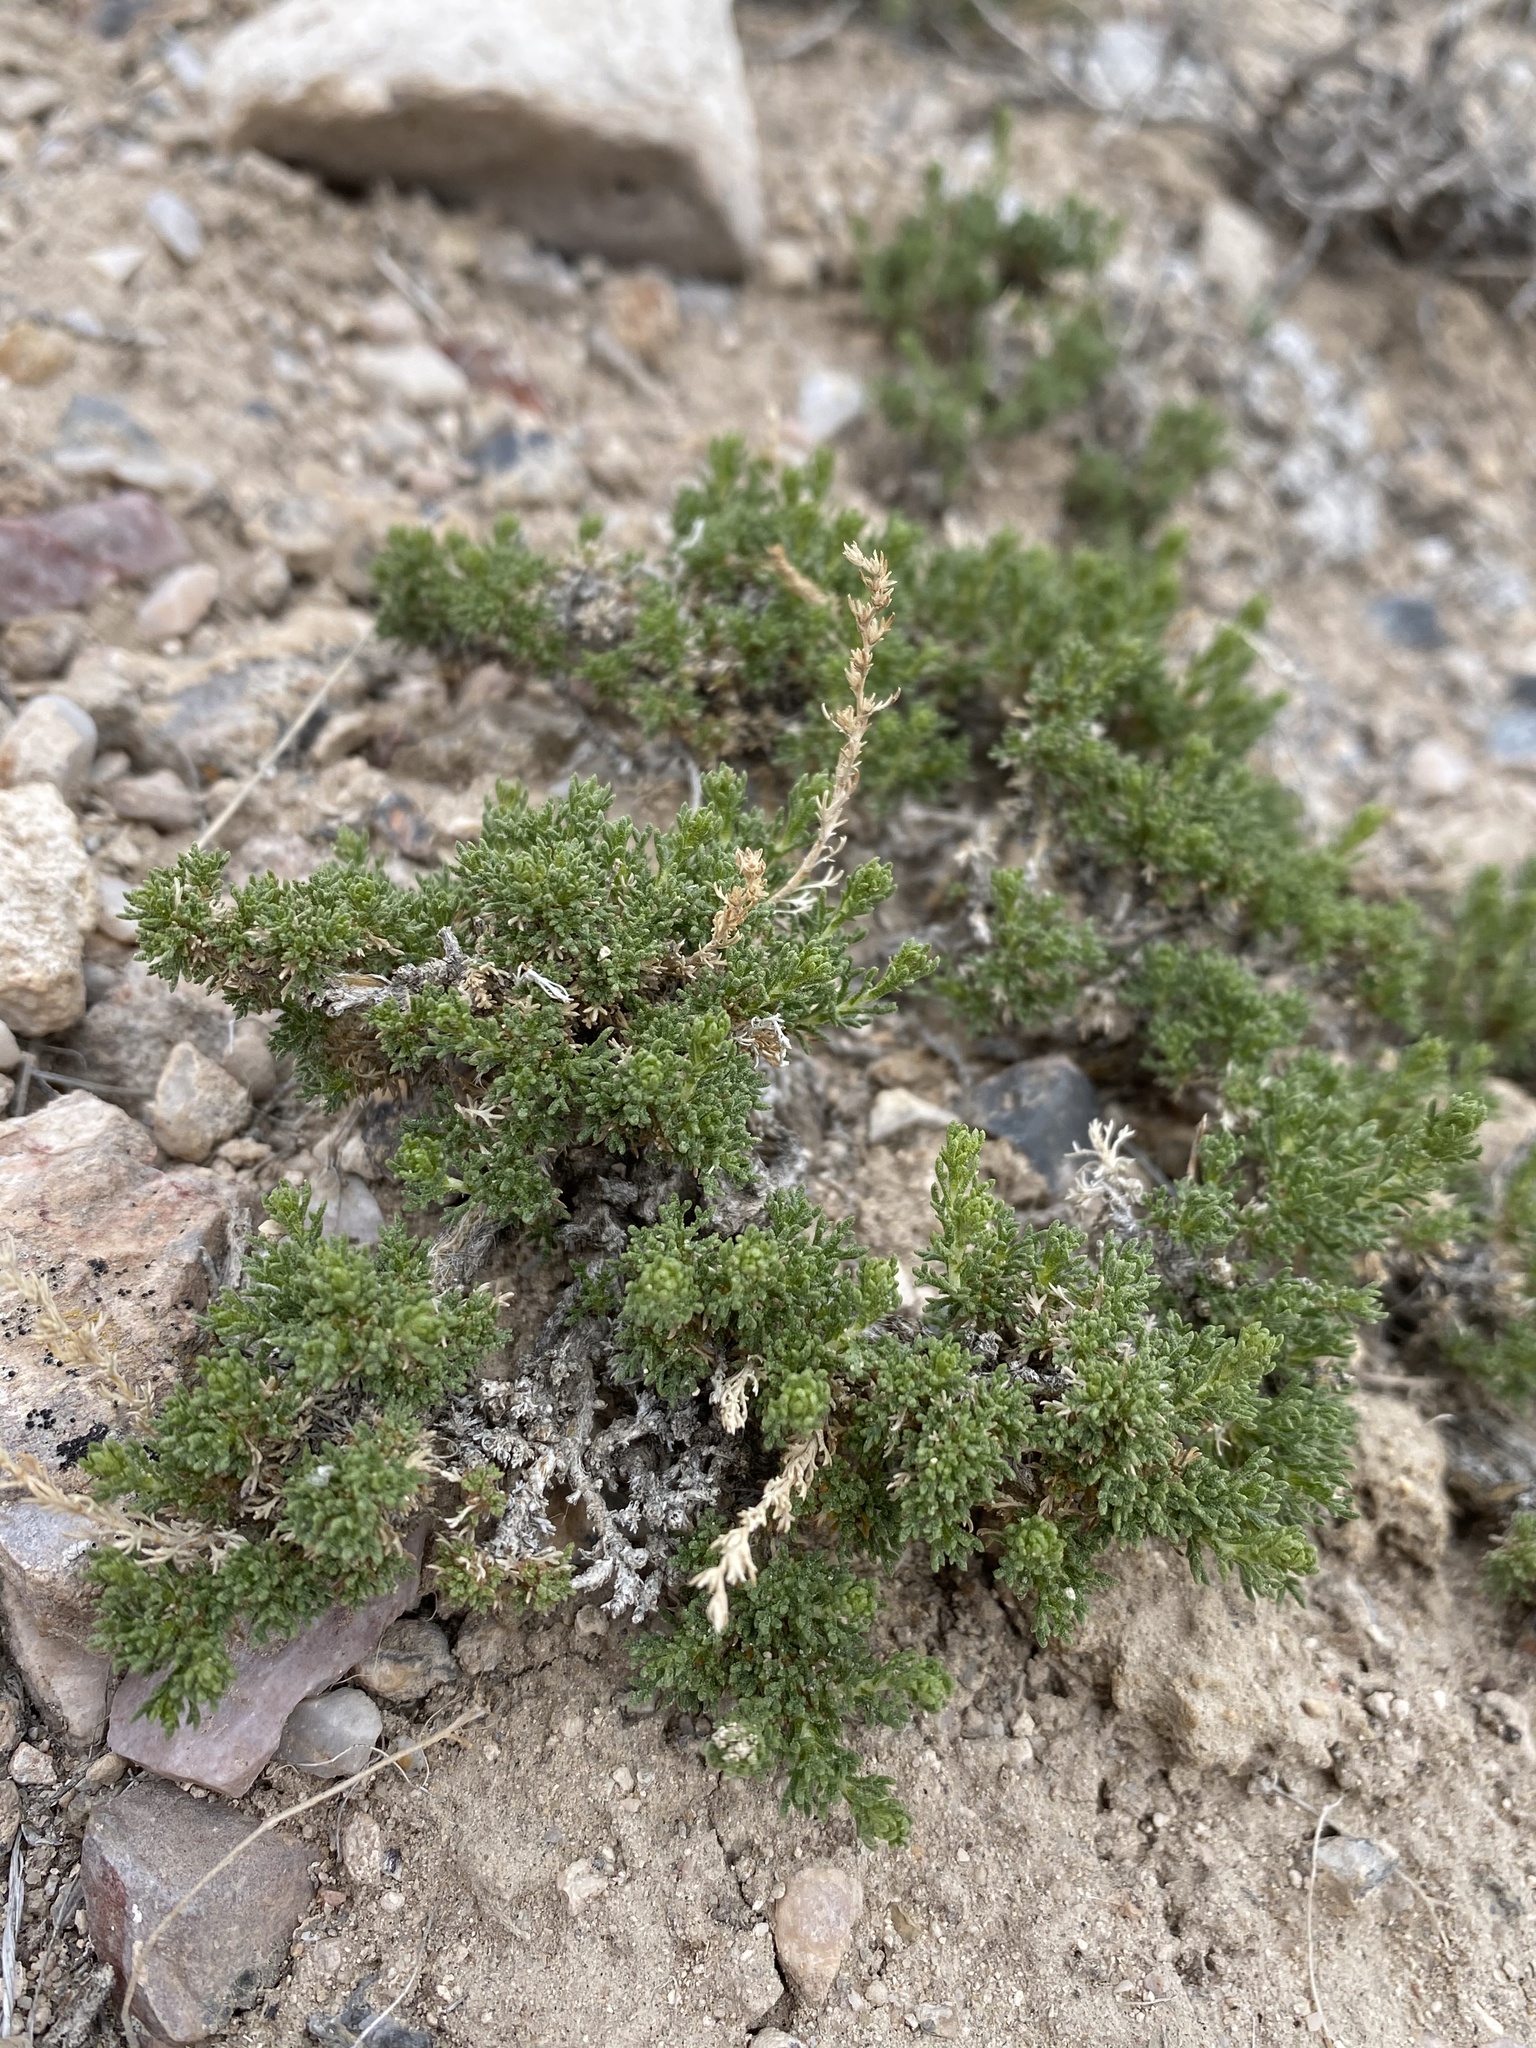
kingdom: Plantae
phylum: Tracheophyta
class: Magnoliopsida
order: Asterales
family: Asteraceae
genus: Artemisia
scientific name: Artemisia pygmaea
